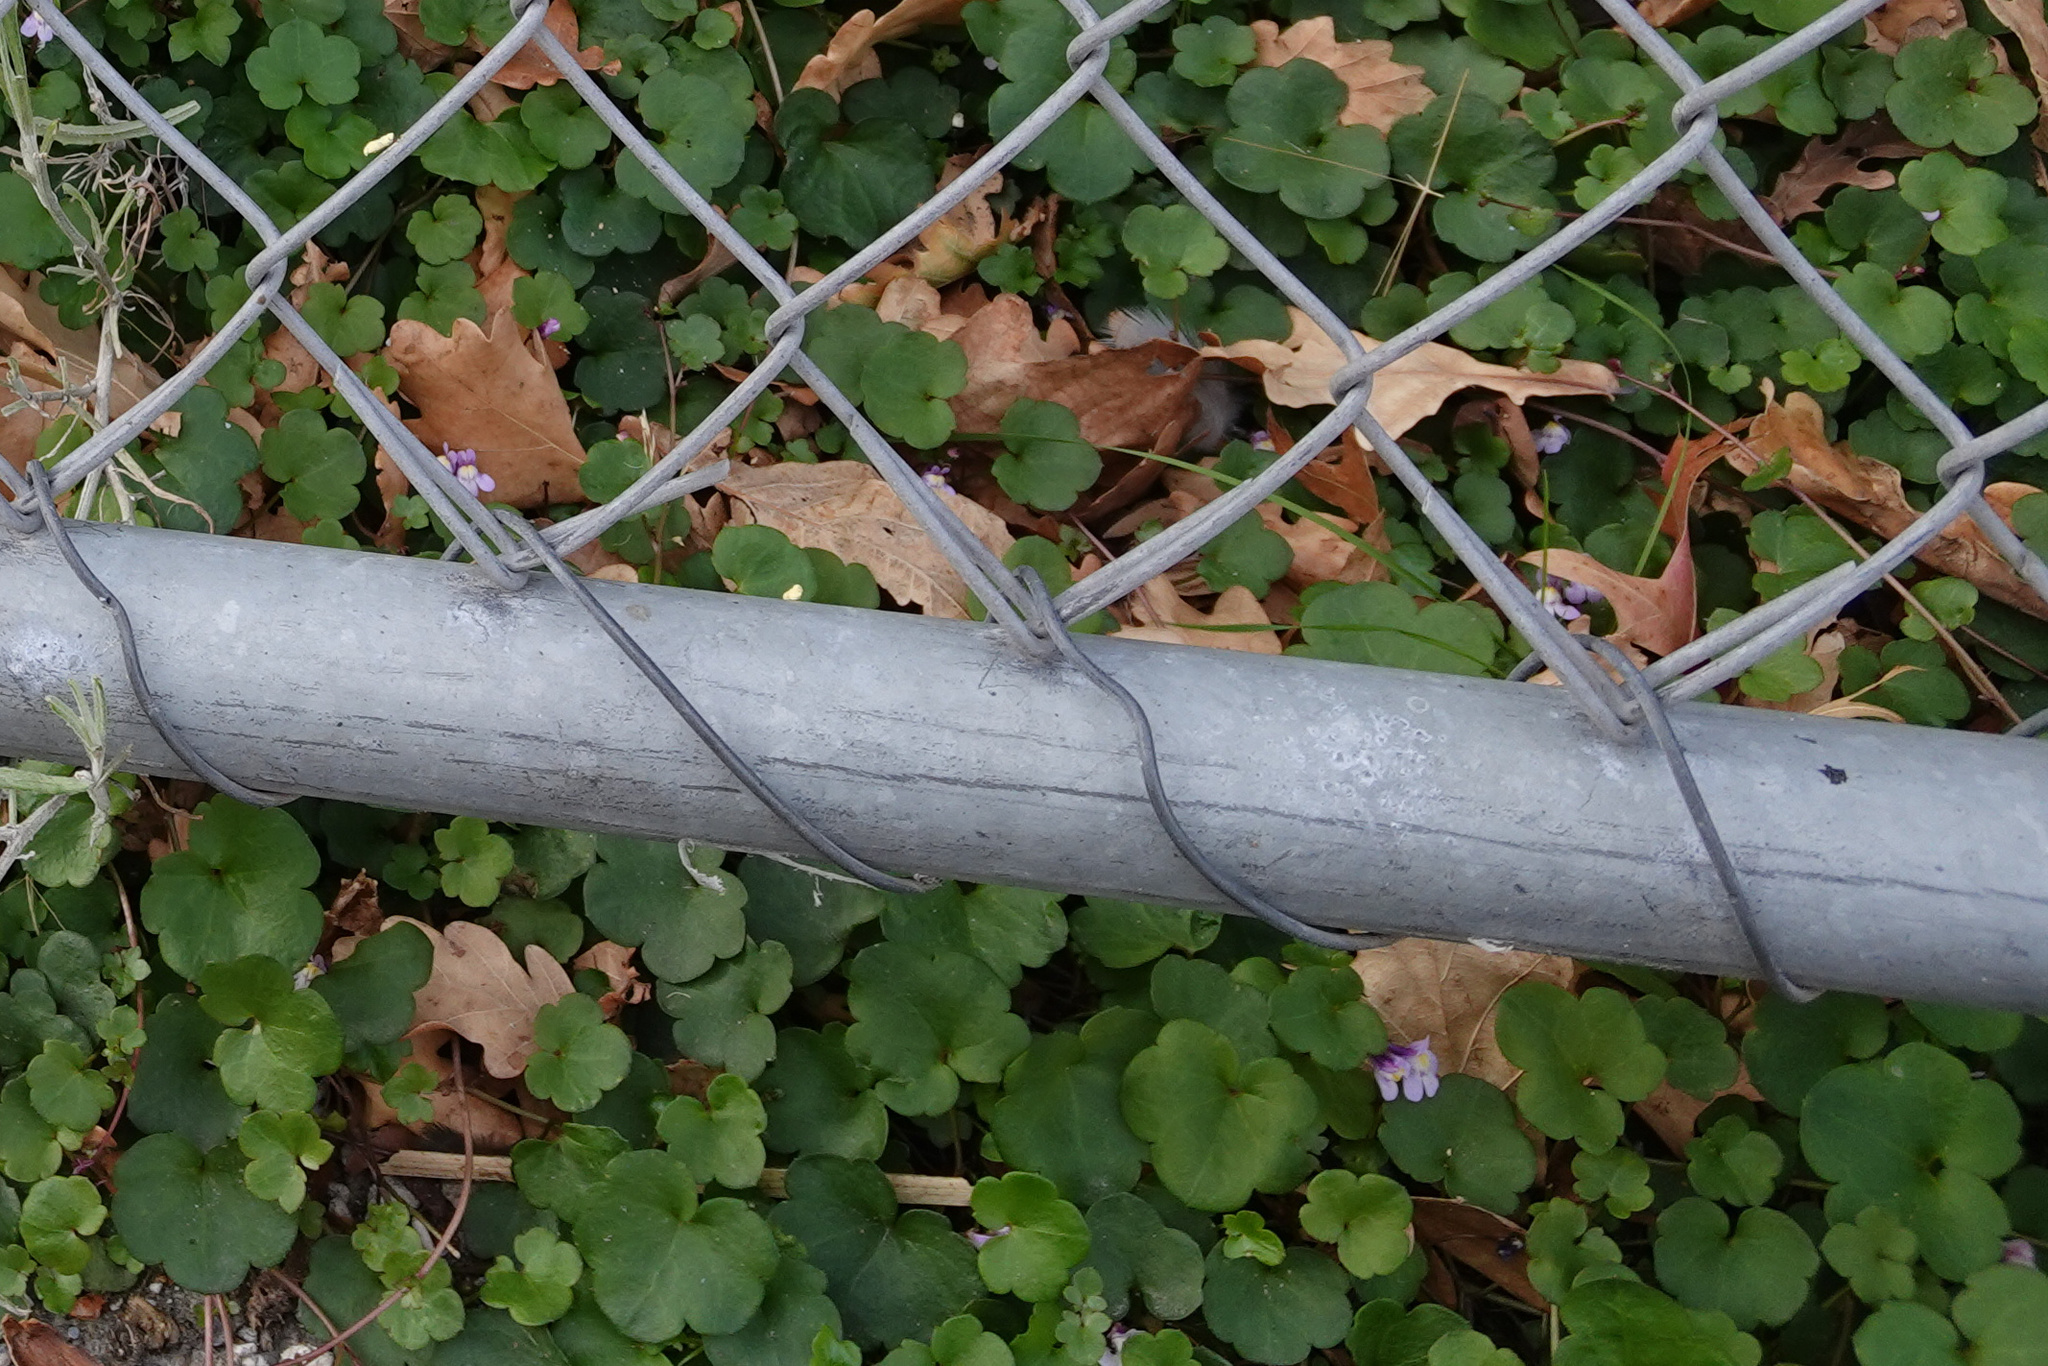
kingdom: Plantae
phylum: Tracheophyta
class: Magnoliopsida
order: Lamiales
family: Plantaginaceae
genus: Cymbalaria
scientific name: Cymbalaria muralis
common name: Ivy-leaved toadflax
